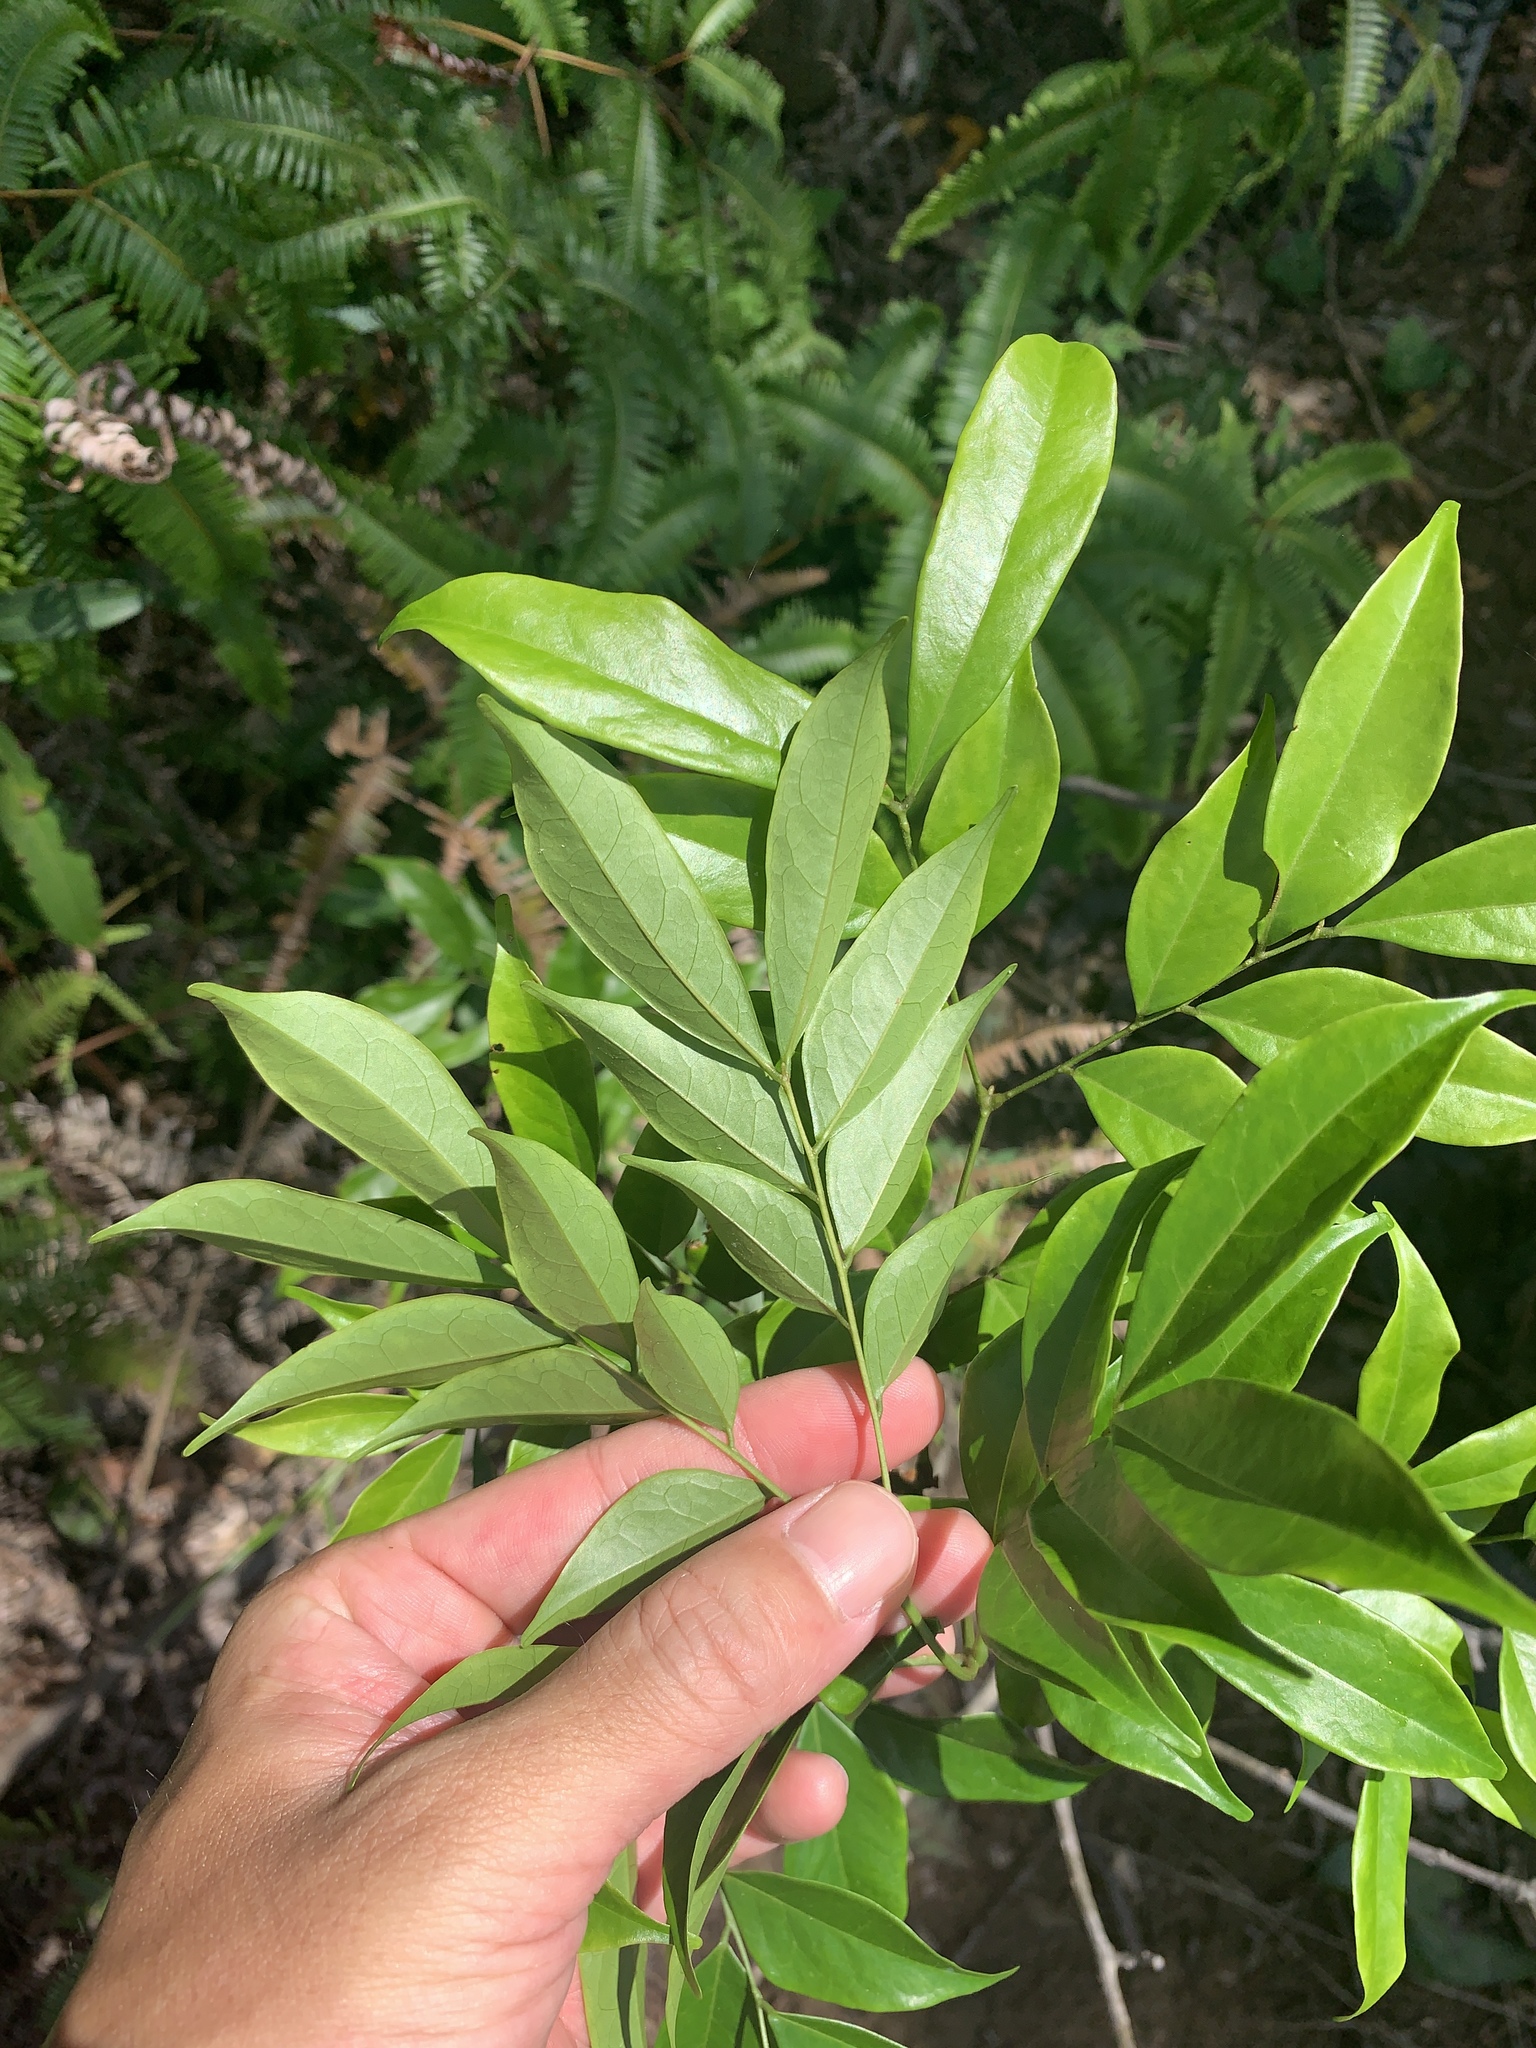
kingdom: Plantae
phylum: Tracheophyta
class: Magnoliopsida
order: Fabales
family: Fabaceae
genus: Archidendron
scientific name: Archidendron lucidum
